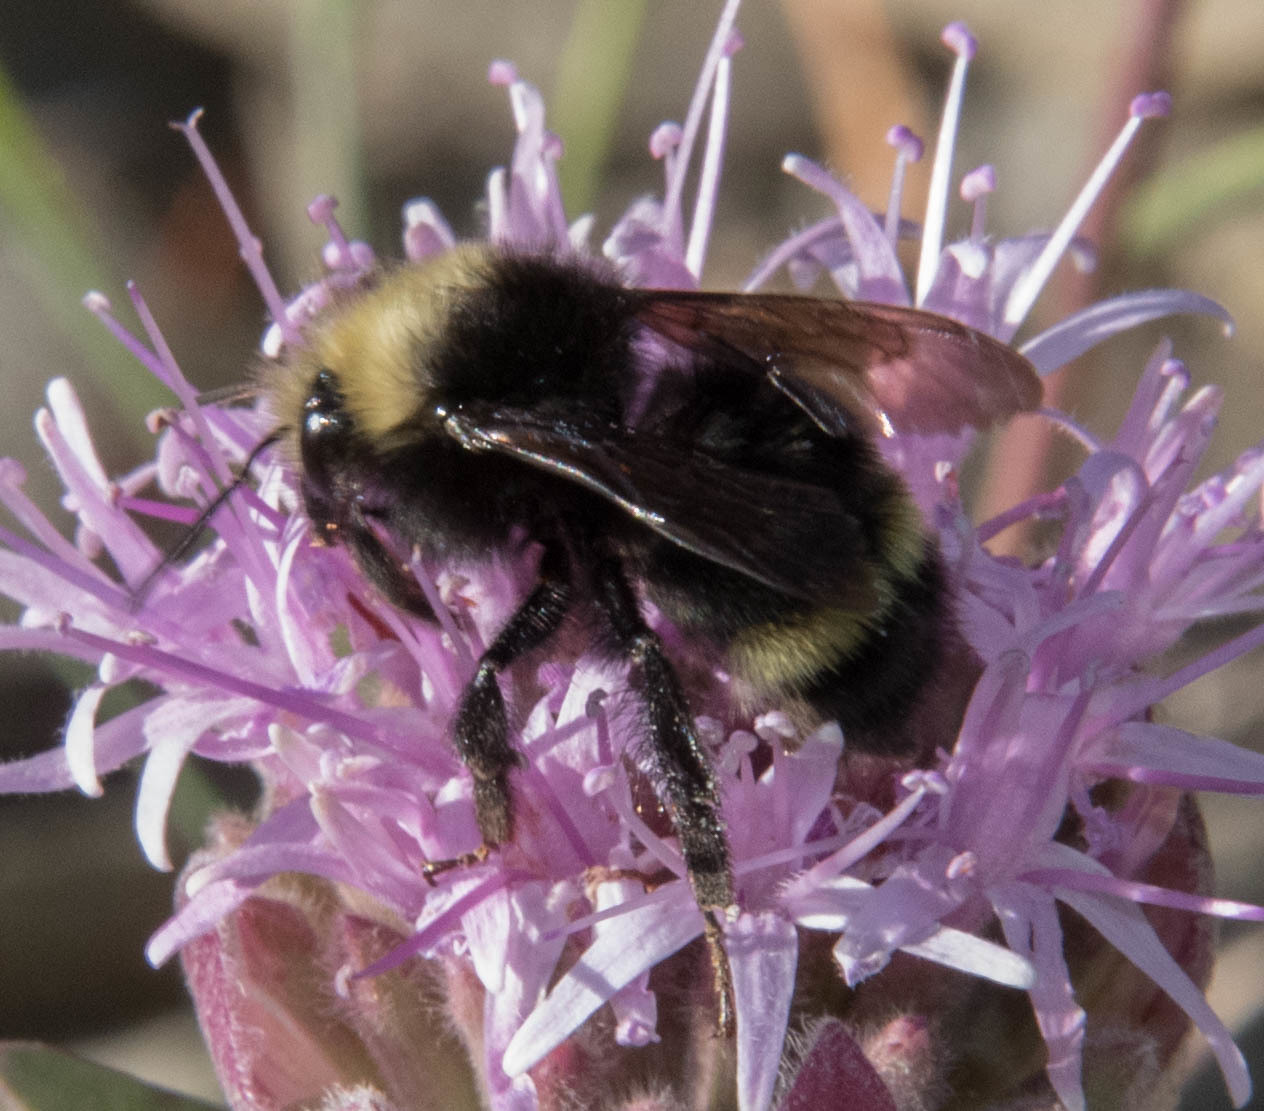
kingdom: Animalia
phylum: Arthropoda
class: Insecta
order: Hymenoptera
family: Apidae
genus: Bombus
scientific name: Bombus vandykei
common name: Van dyke bumble bee
